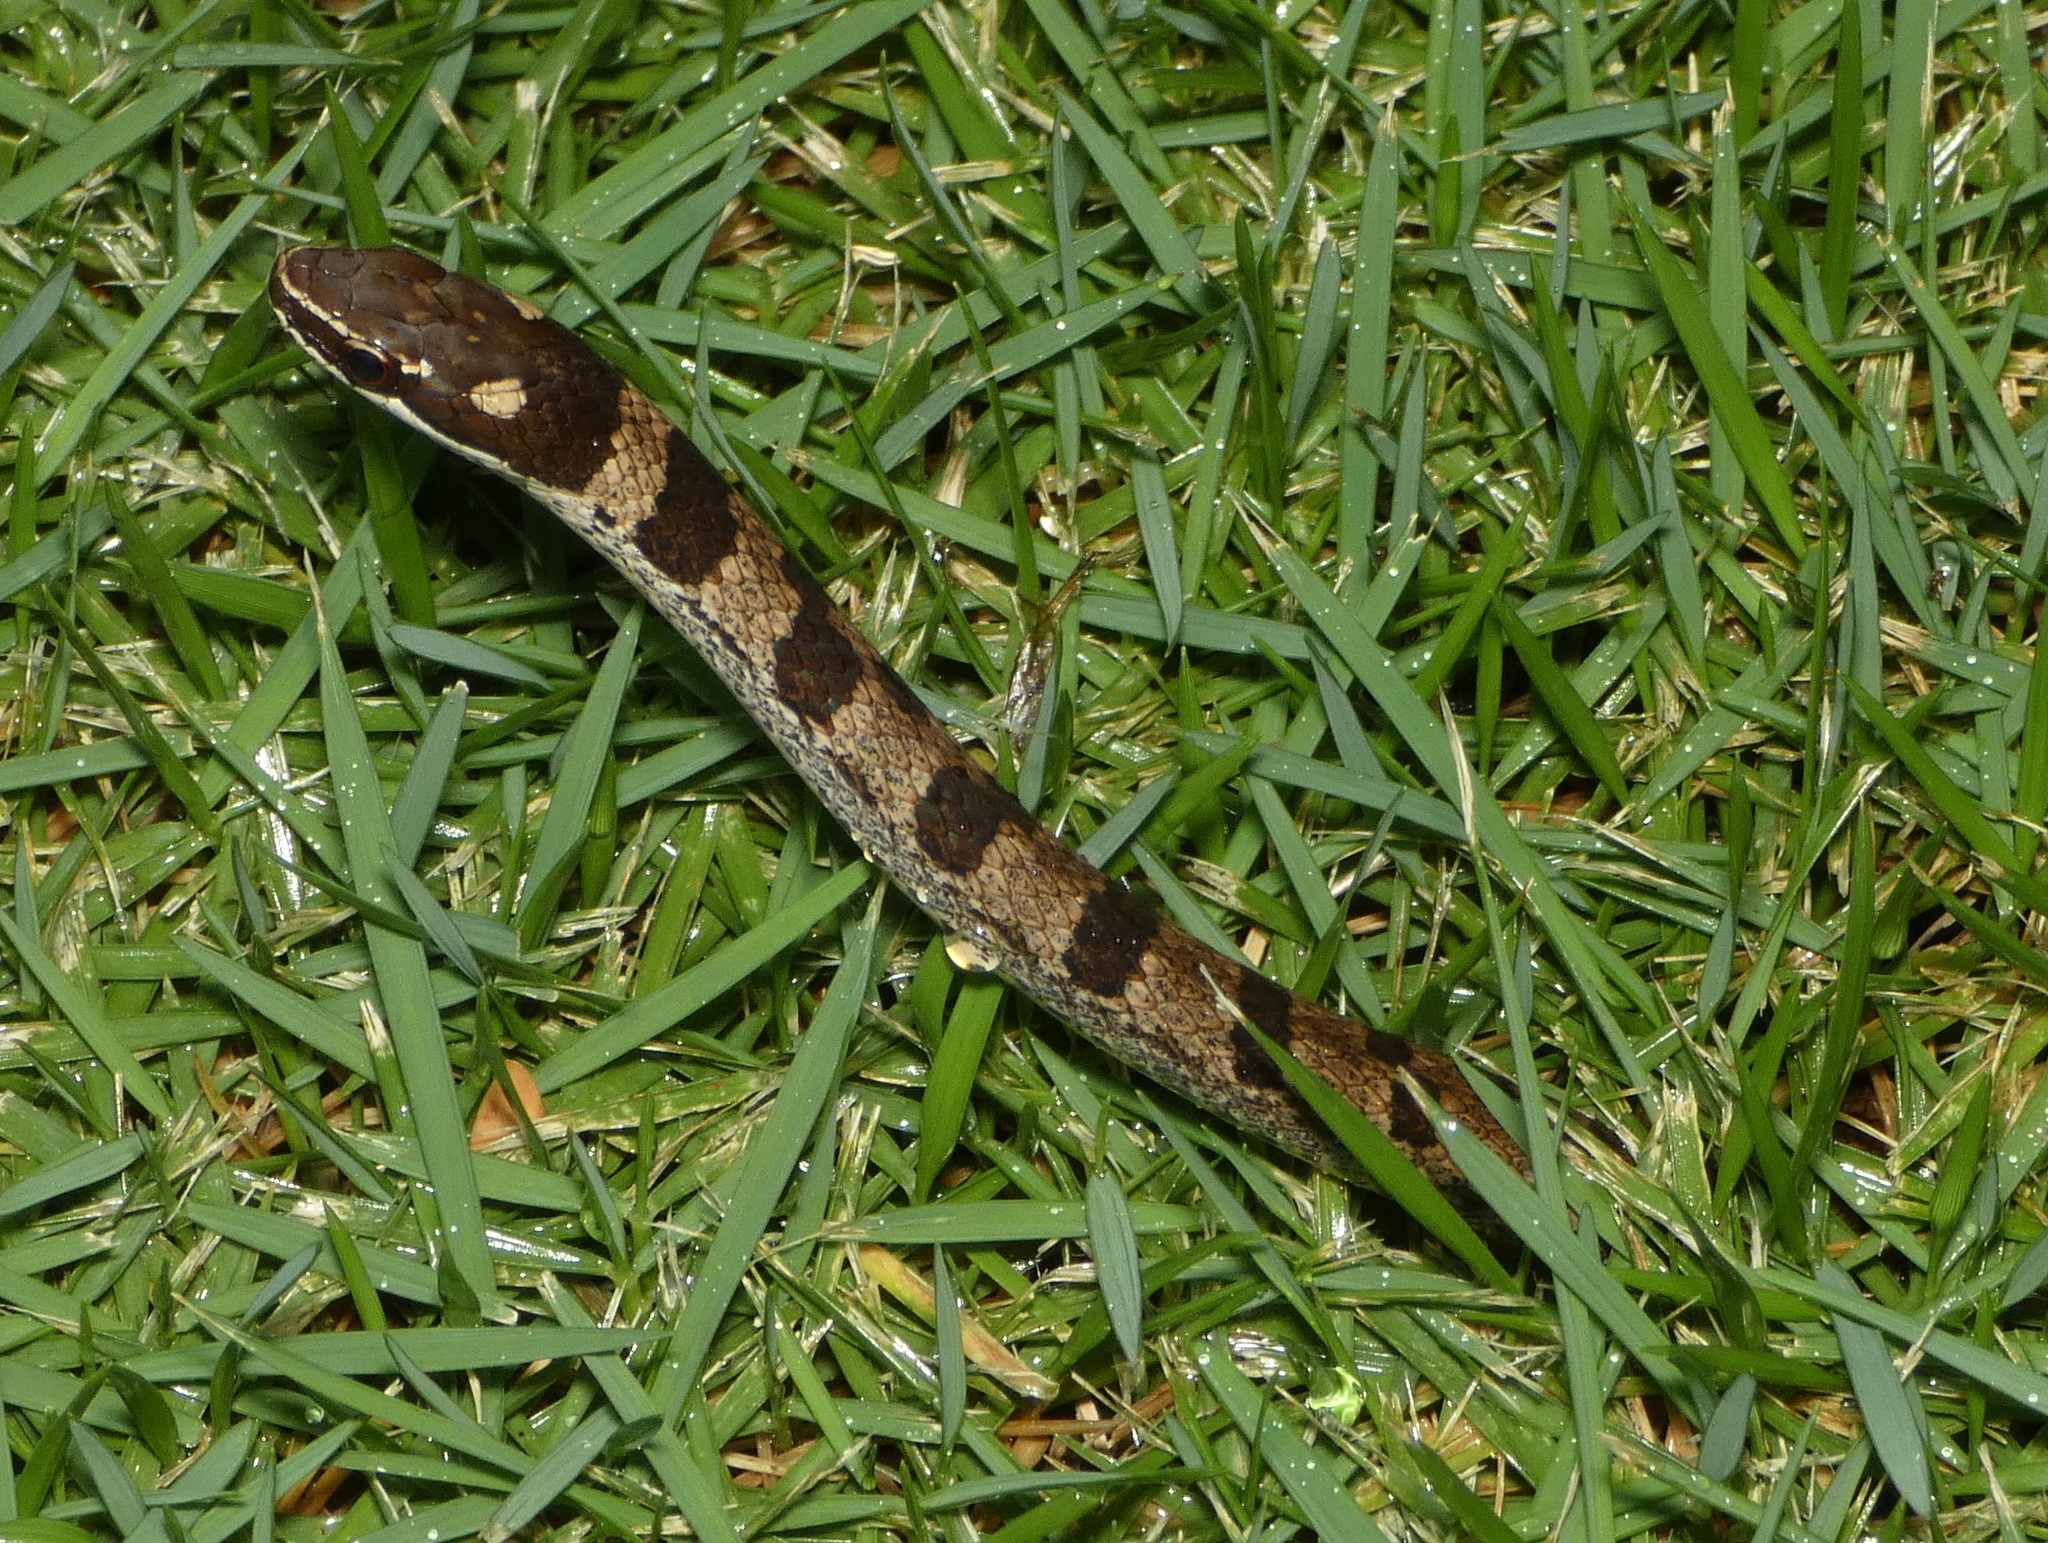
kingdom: Animalia
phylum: Chordata
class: Squamata
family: Colubridae
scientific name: Colubridae
